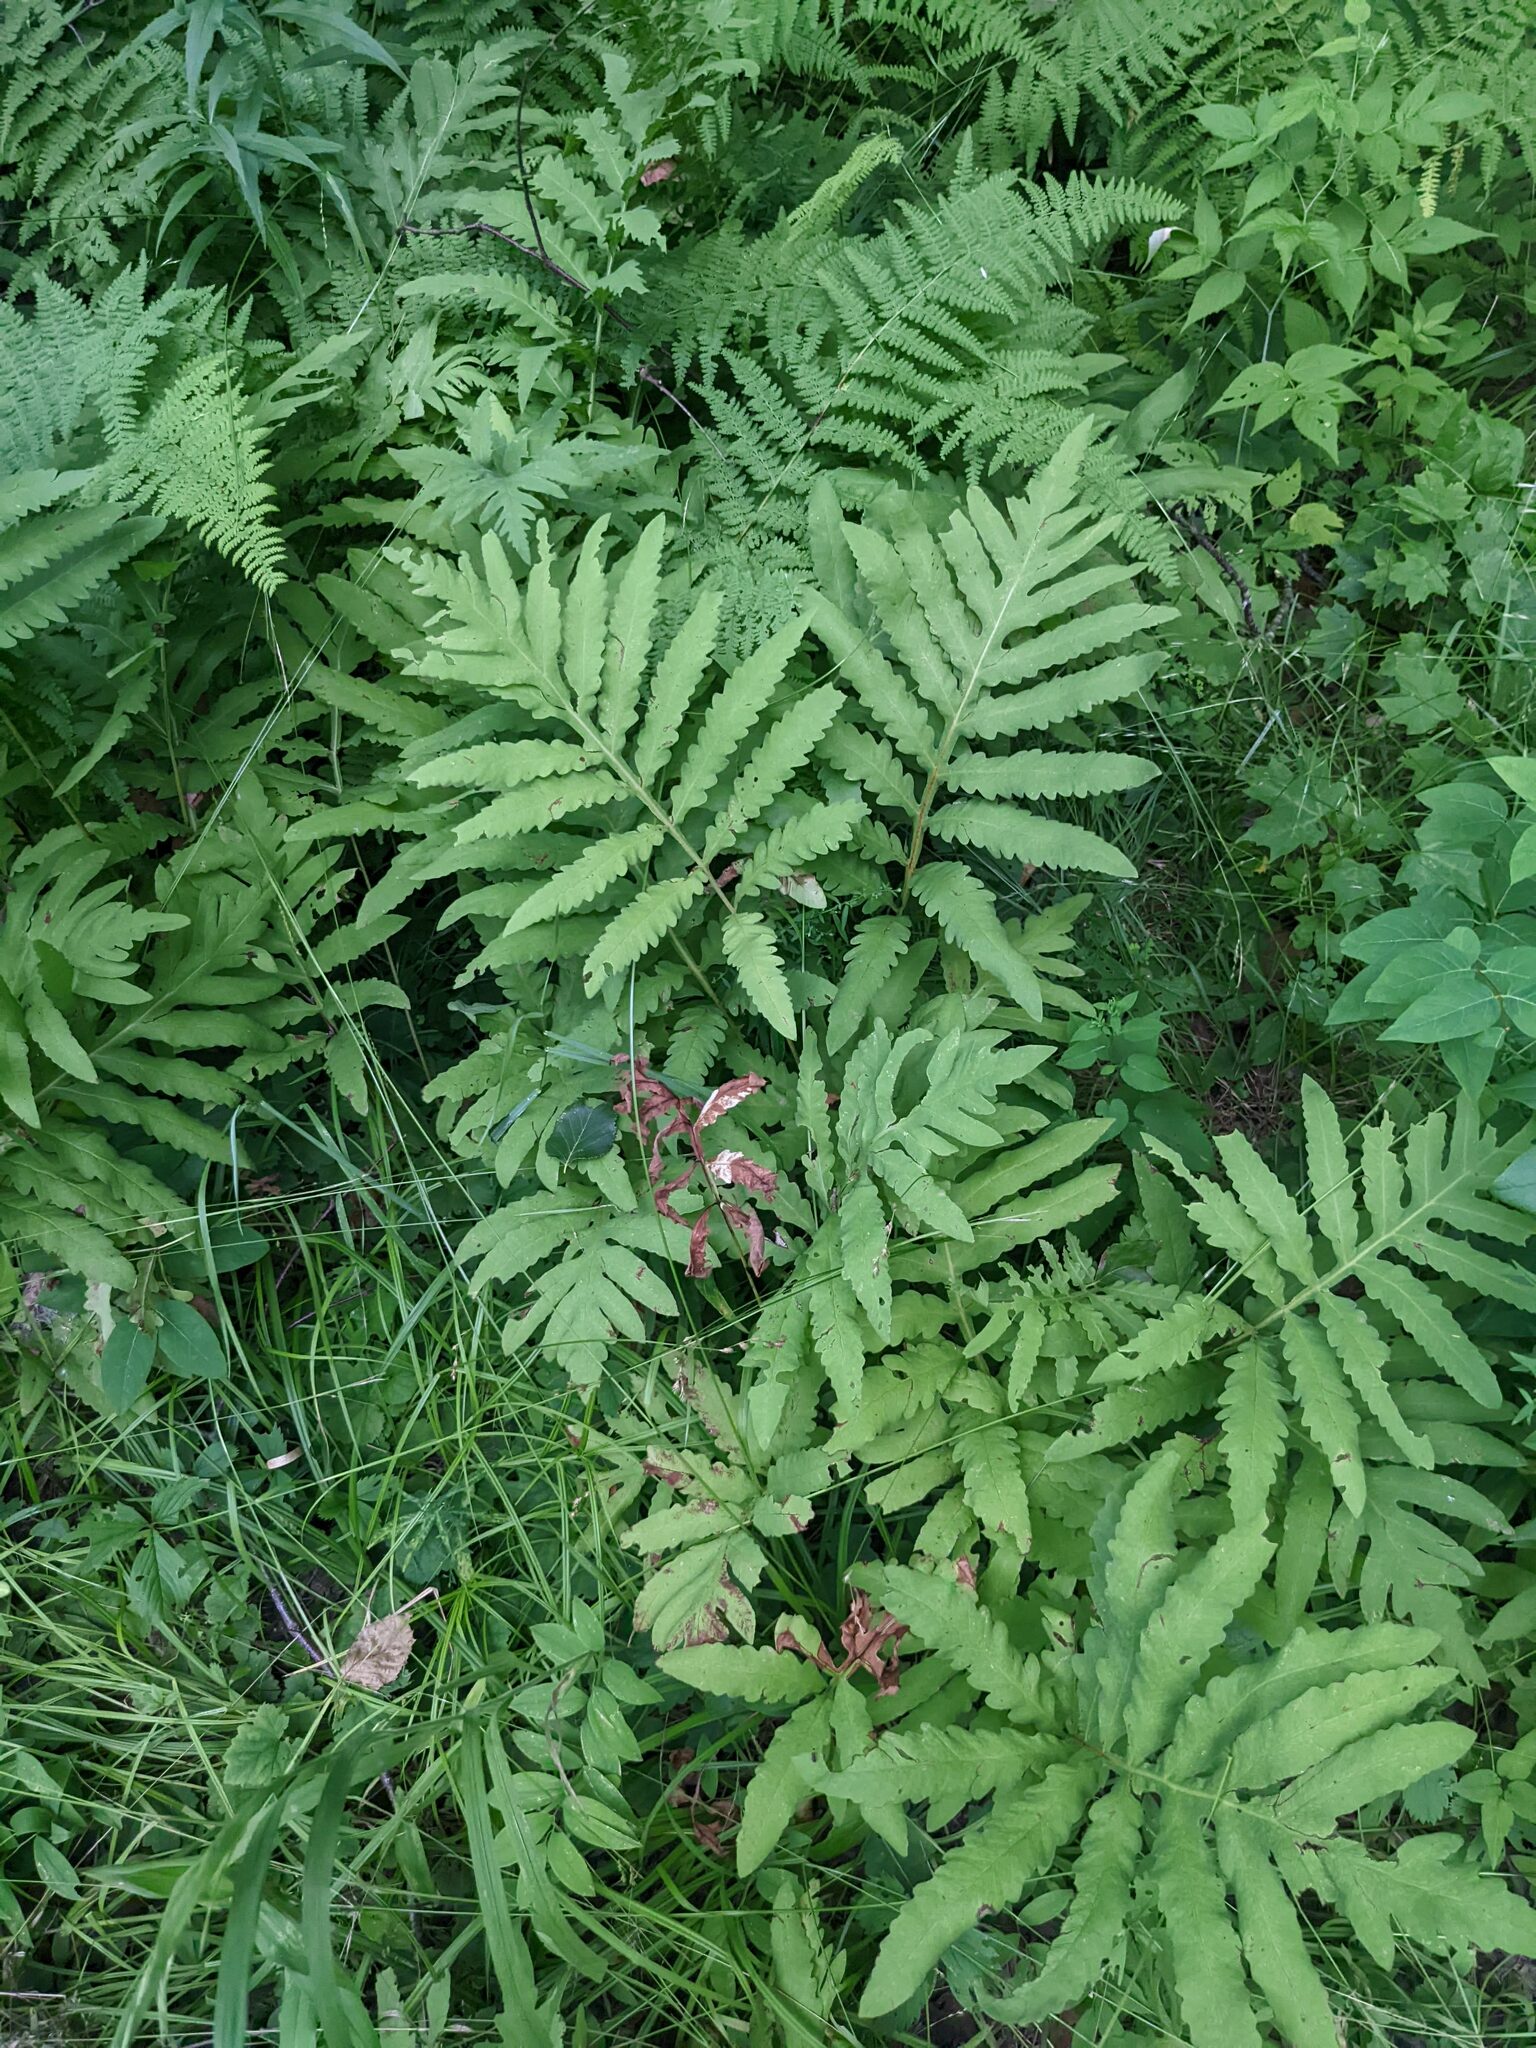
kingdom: Plantae
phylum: Tracheophyta
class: Polypodiopsida
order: Polypodiales
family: Onocleaceae
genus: Onoclea
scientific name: Onoclea sensibilis
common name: Sensitive fern
